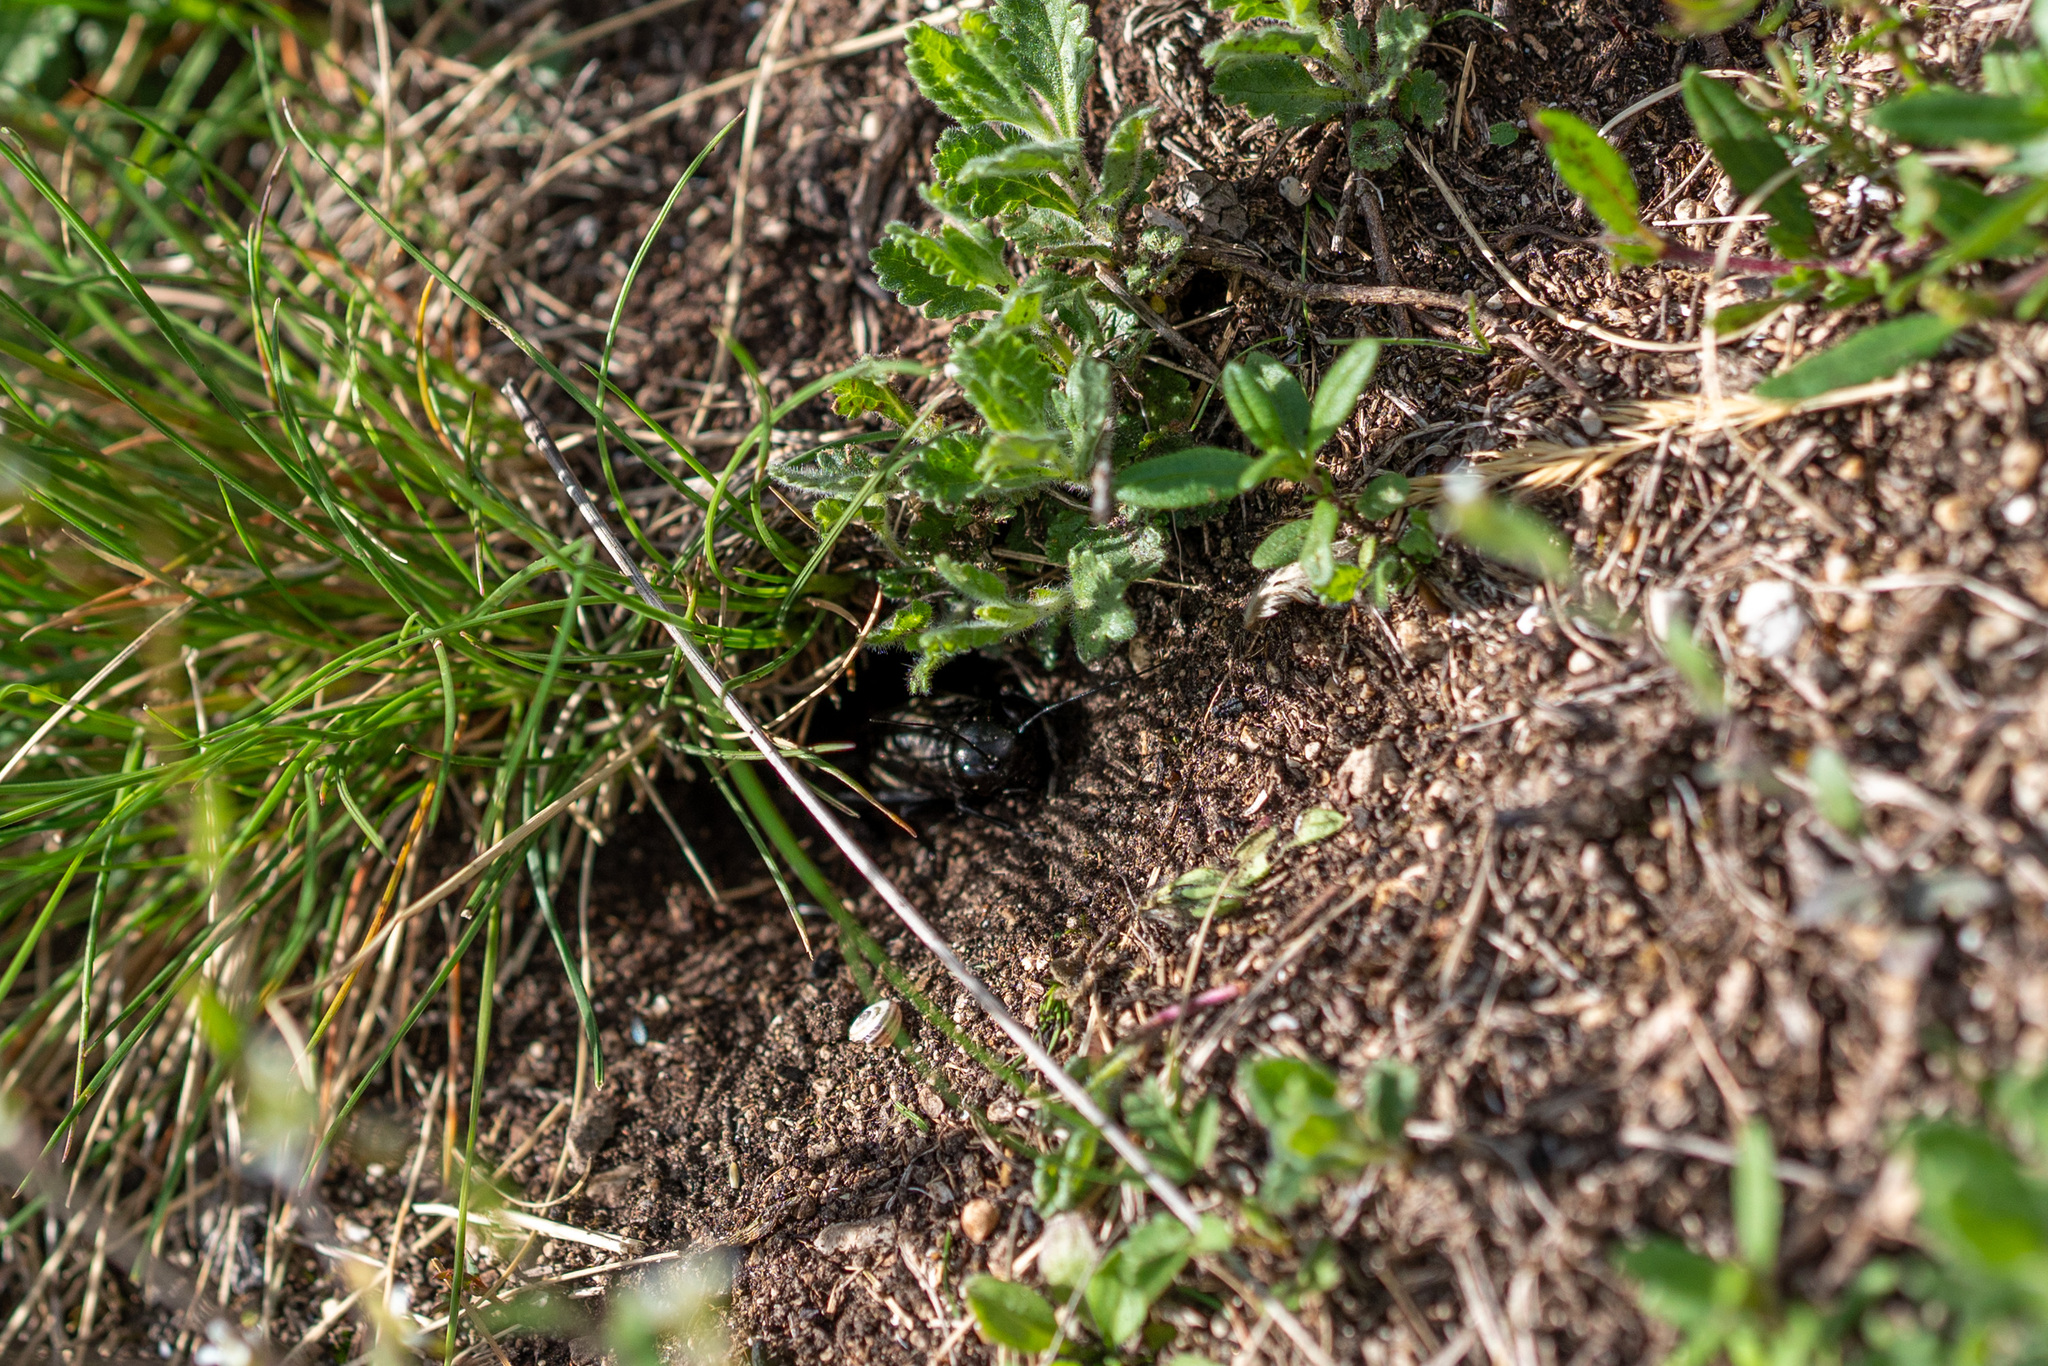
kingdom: Animalia
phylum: Arthropoda
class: Insecta
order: Orthoptera
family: Gryllidae
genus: Gryllus
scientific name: Gryllus campestris
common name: Field cricket
